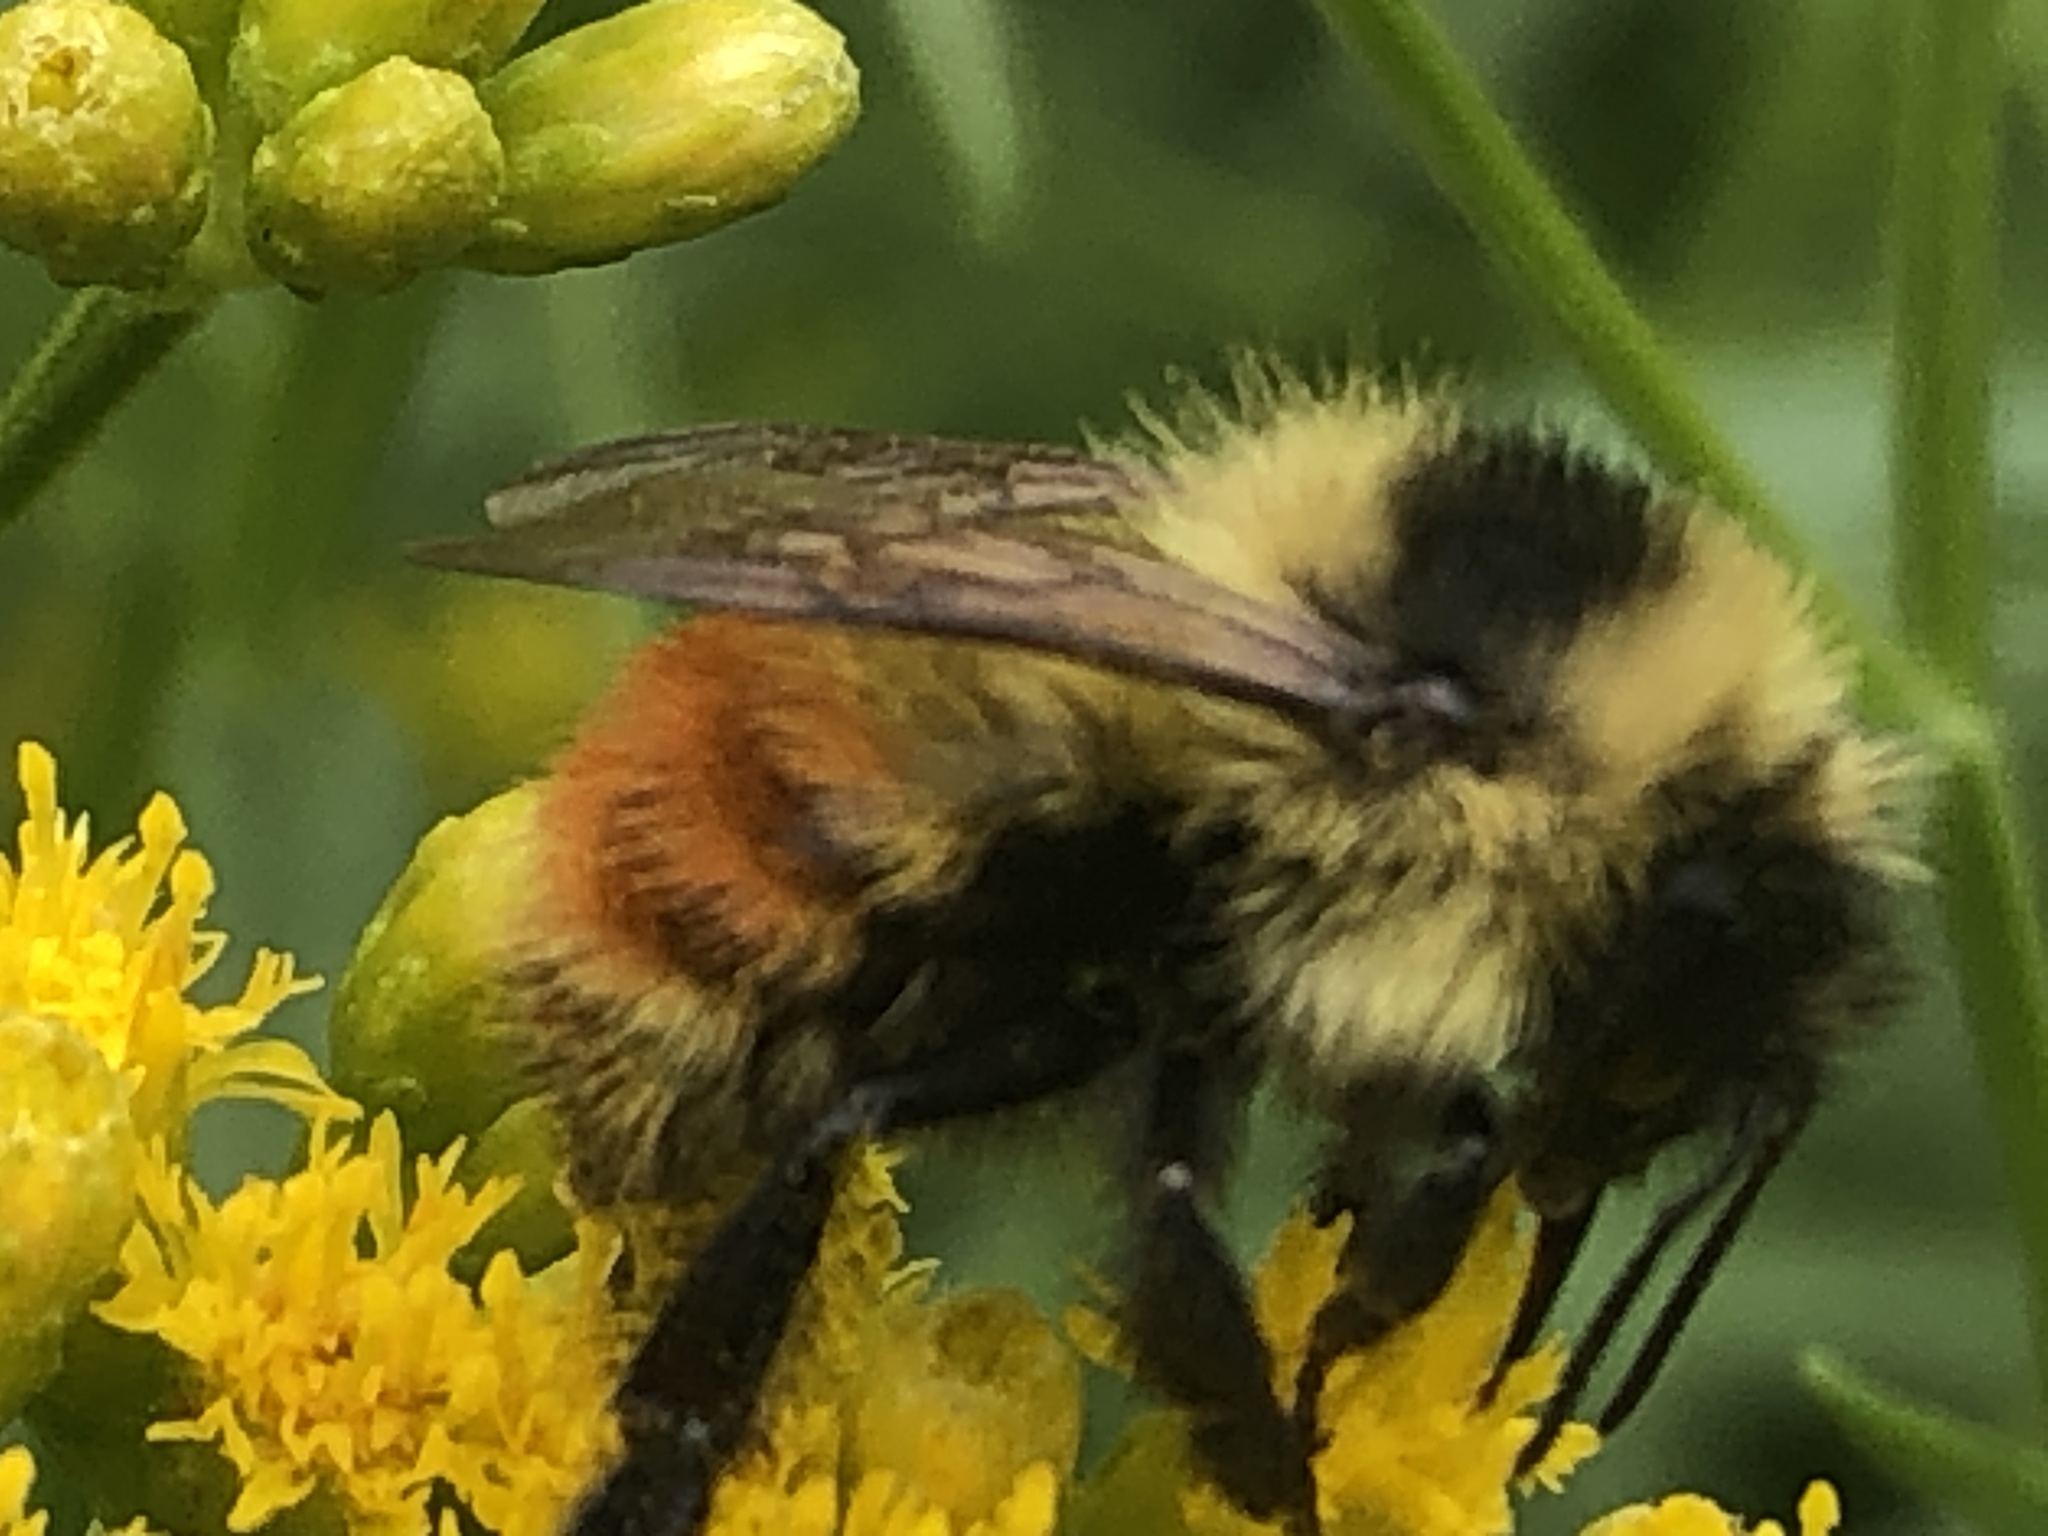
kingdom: Animalia
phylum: Arthropoda
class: Insecta
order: Hymenoptera
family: Apidae
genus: Bombus
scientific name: Bombus rufocinctus
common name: Red-belted bumble bee
